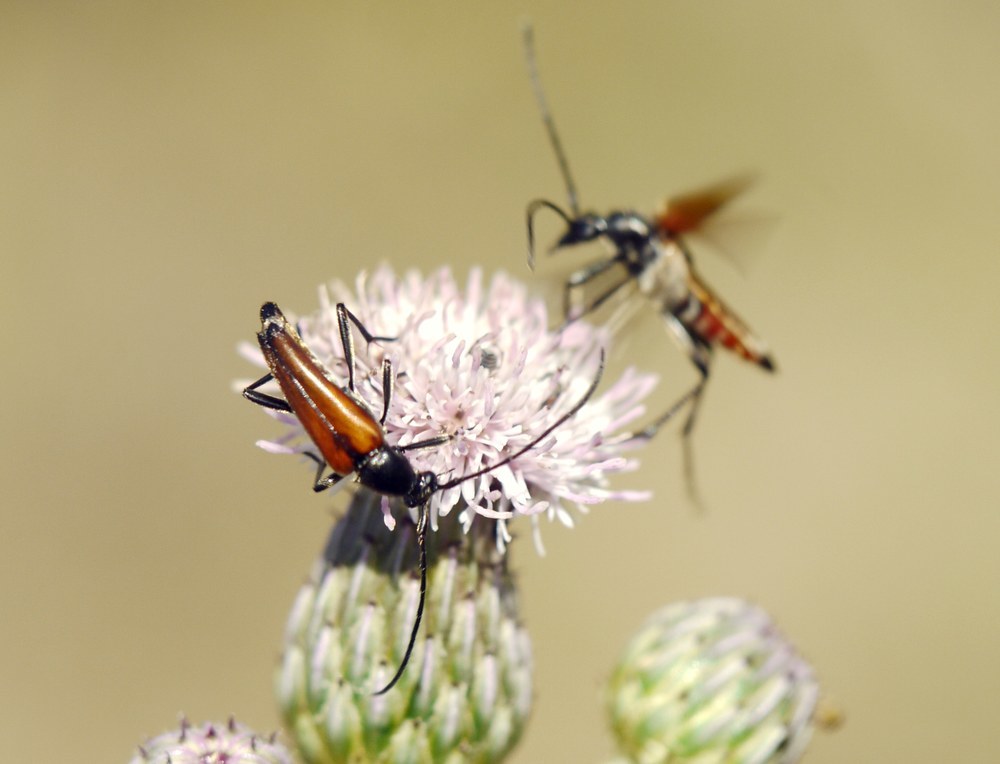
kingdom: Animalia
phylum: Arthropoda
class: Insecta
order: Coleoptera
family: Cerambycidae
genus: Stenurella
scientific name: Stenurella bifasciata
